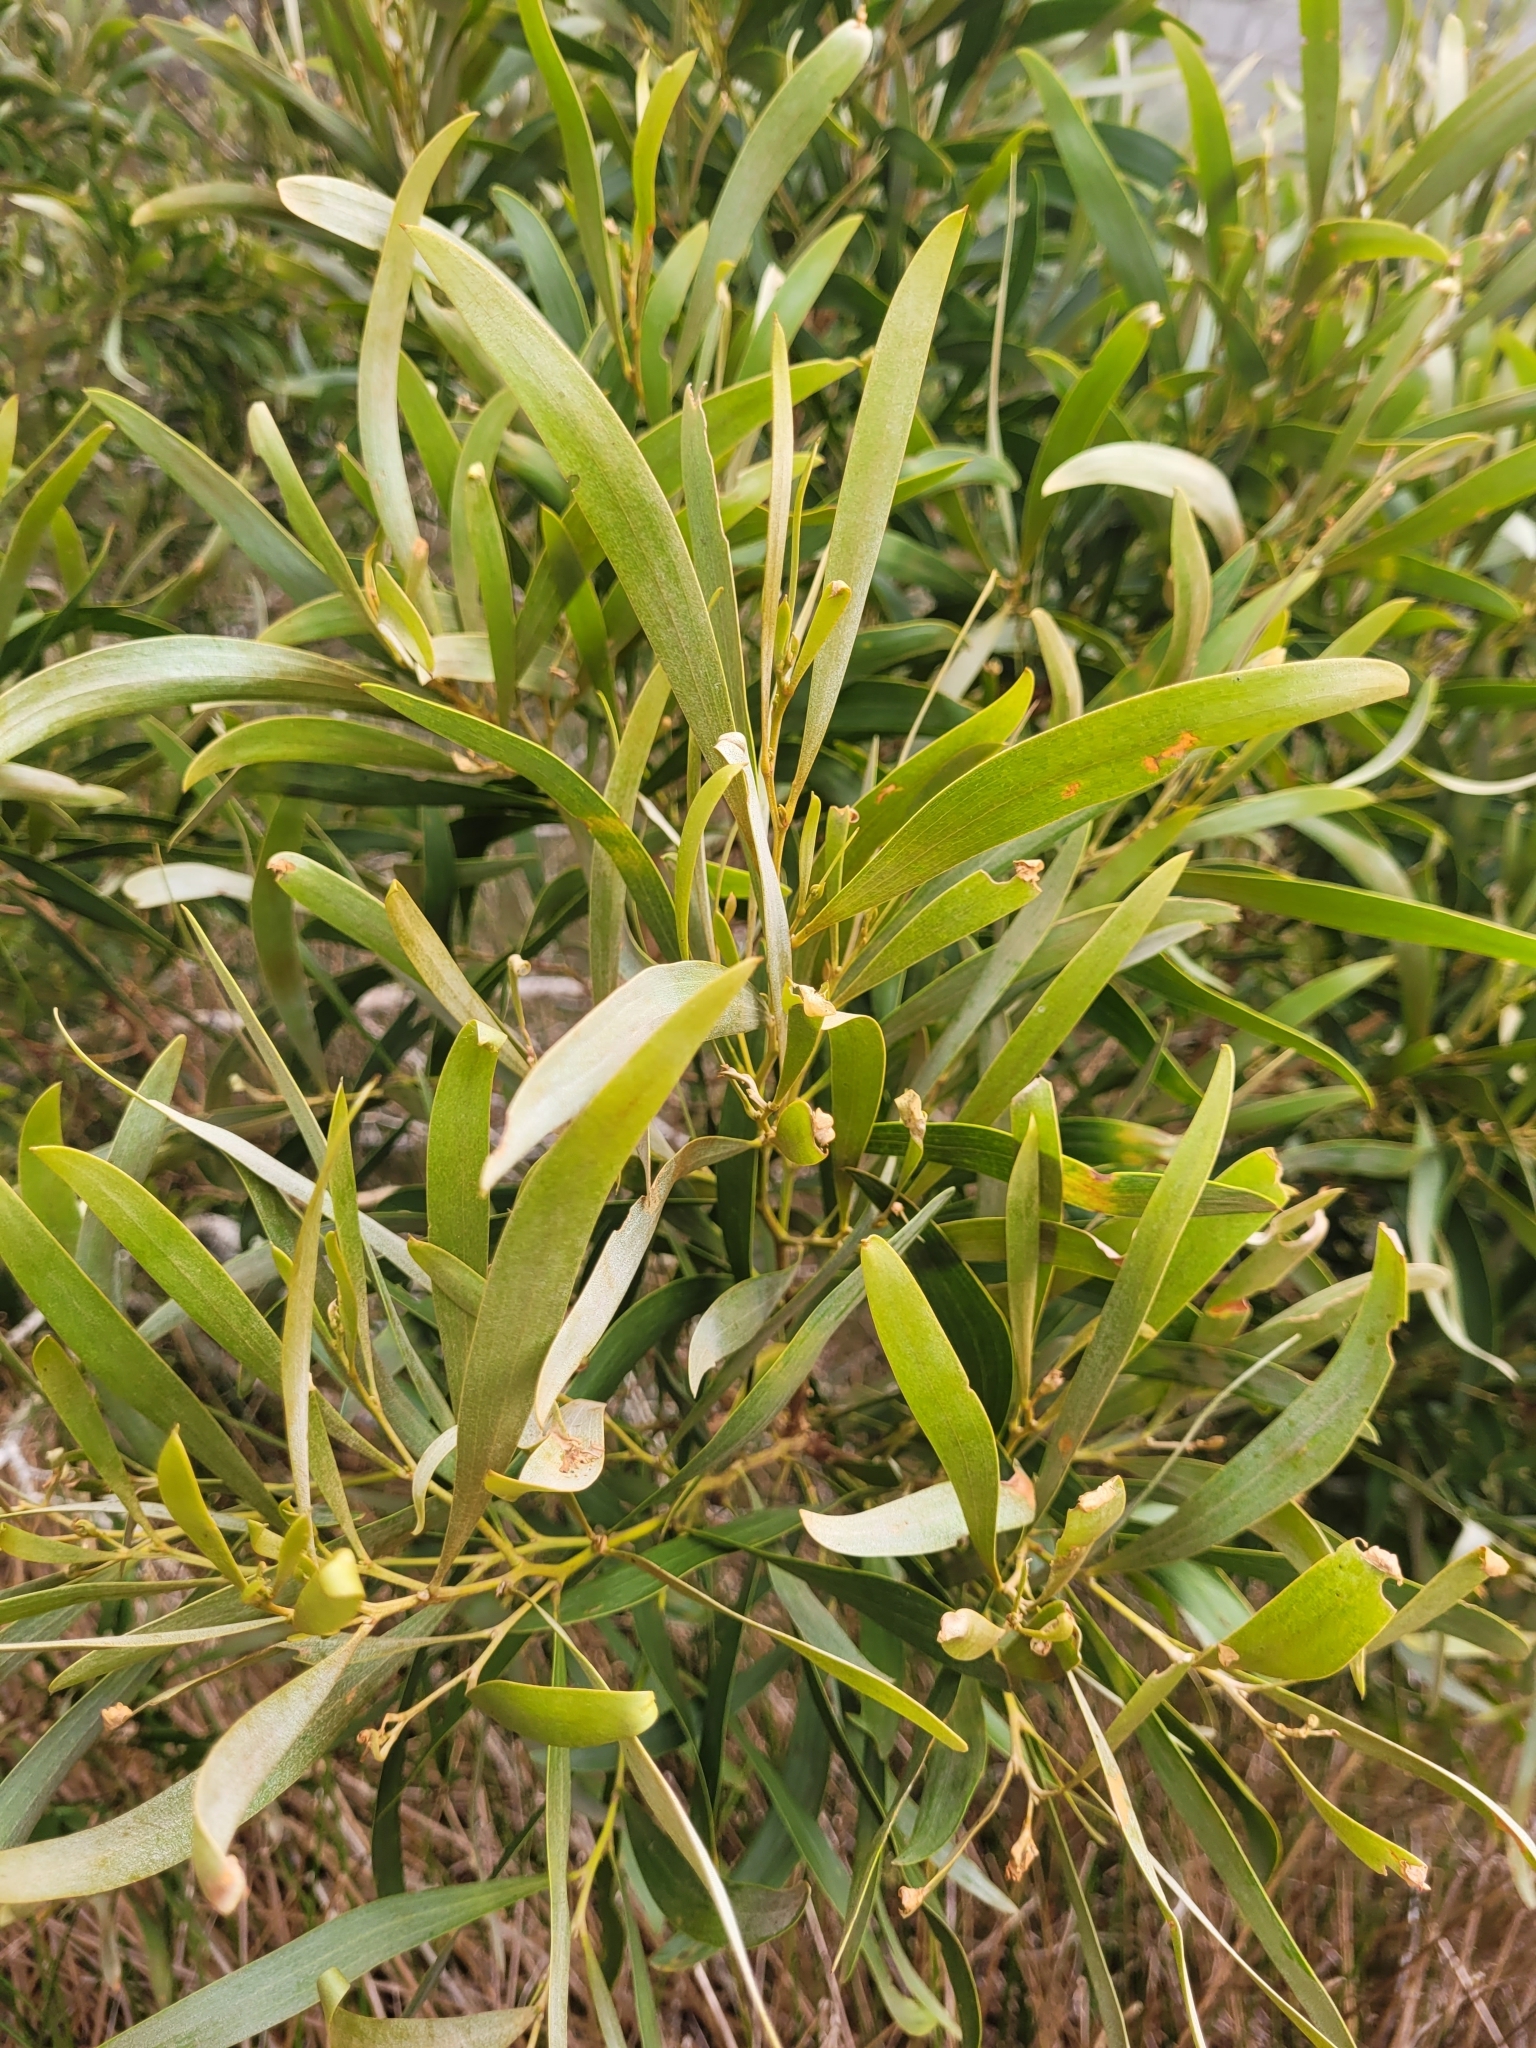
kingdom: Plantae
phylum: Tracheophyta
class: Magnoliopsida
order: Fabales
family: Fabaceae
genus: Acacia
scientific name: Acacia heterophylla
